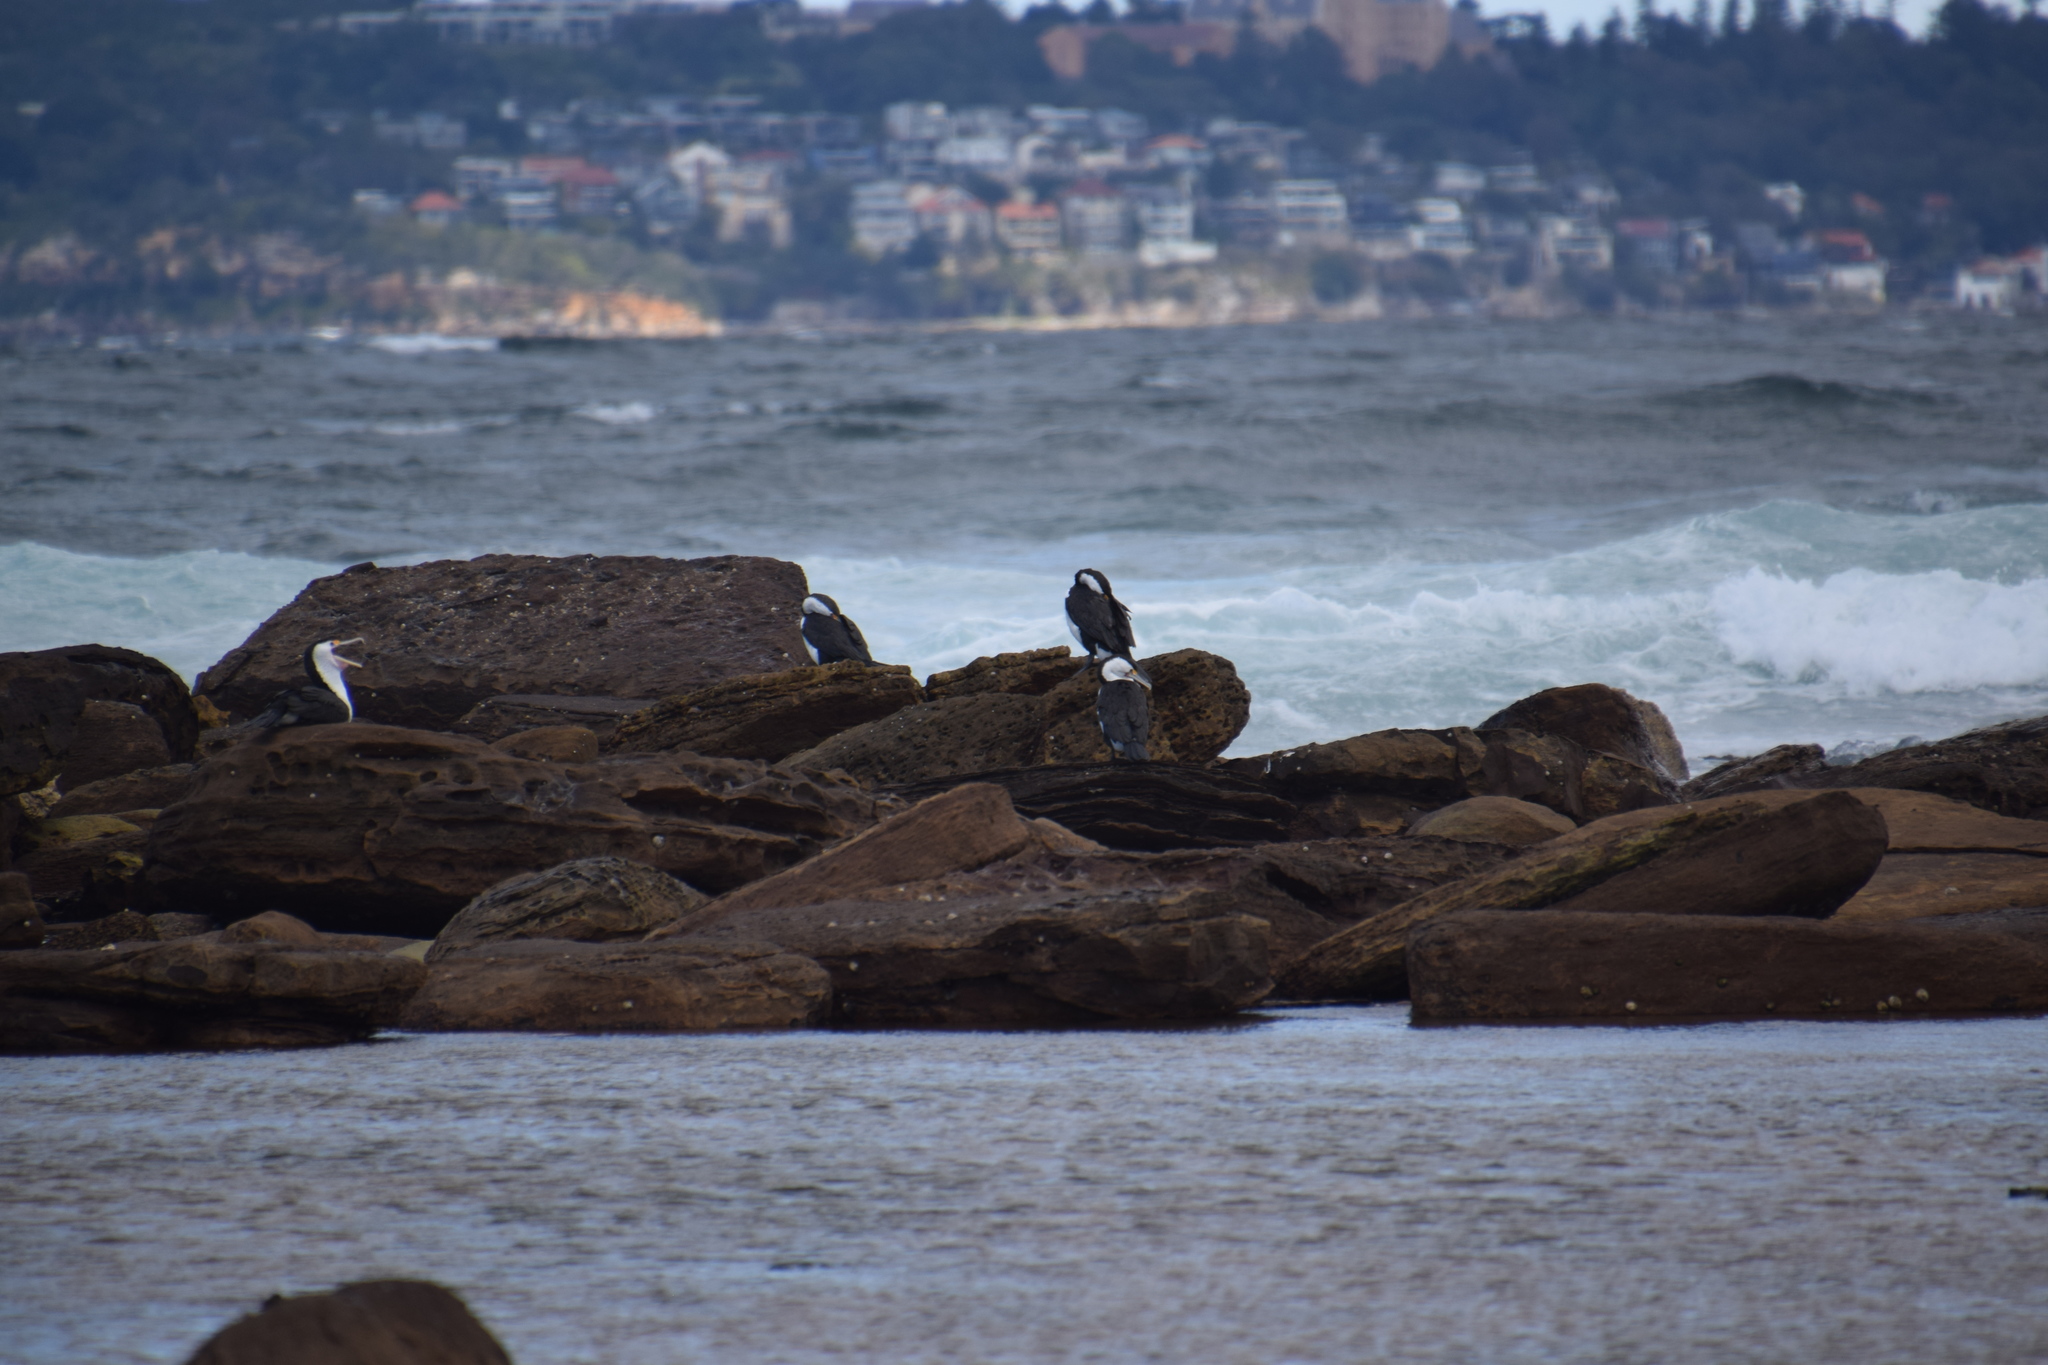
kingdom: Animalia
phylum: Chordata
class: Aves
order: Suliformes
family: Phalacrocoracidae
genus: Phalacrocorax
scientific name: Phalacrocorax varius
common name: Pied cormorant
